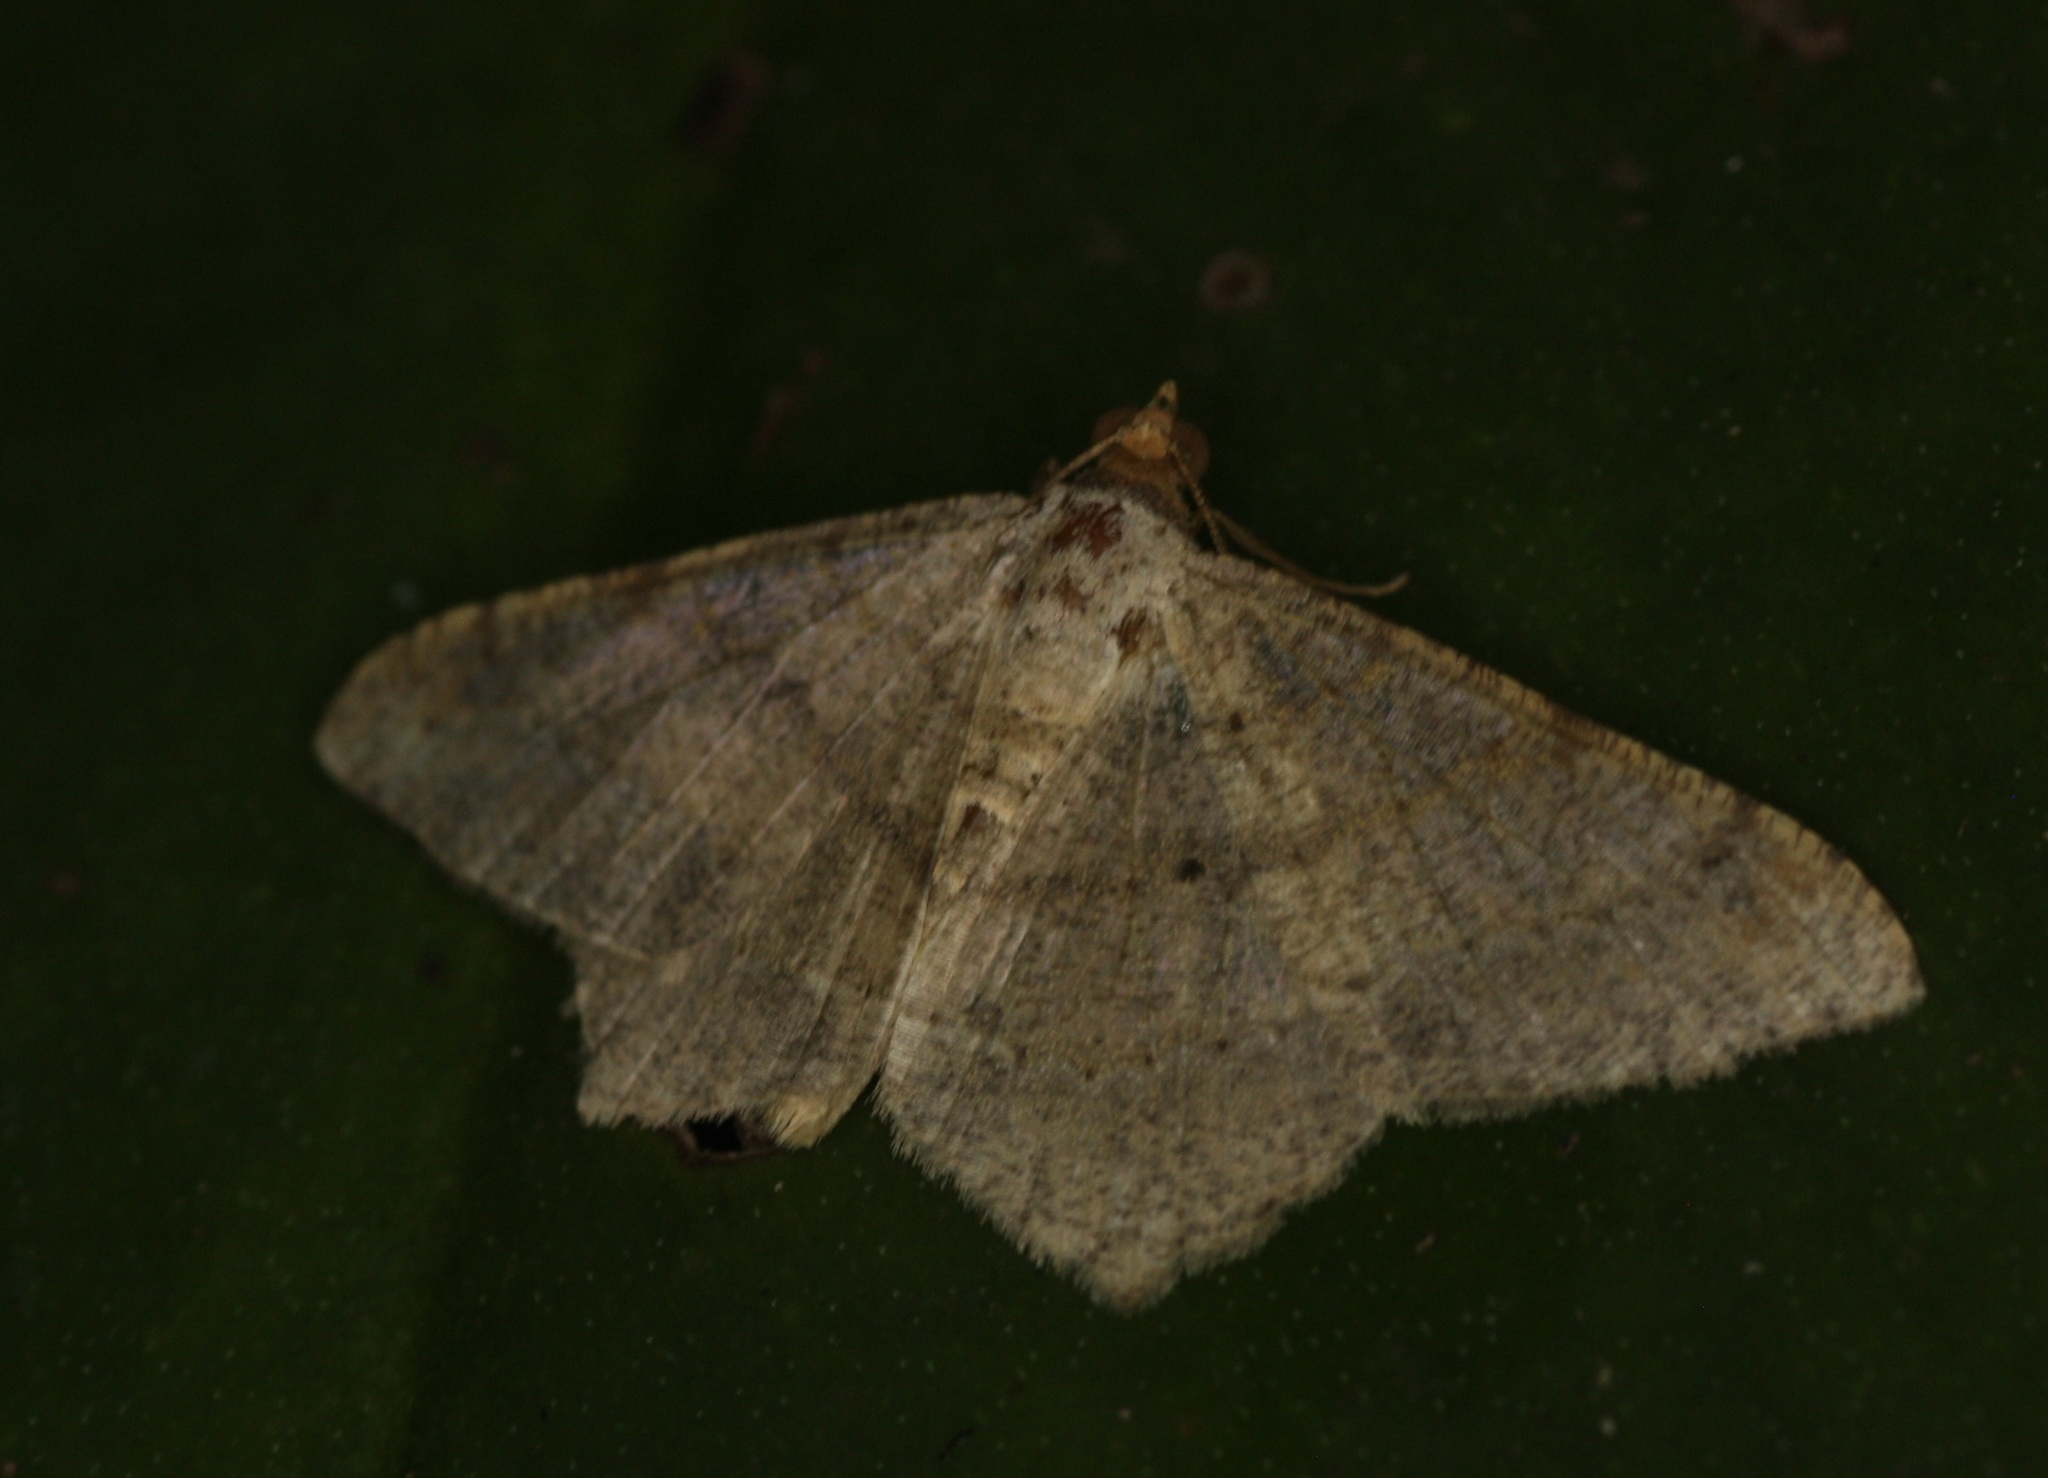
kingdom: Animalia
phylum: Arthropoda
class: Insecta
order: Lepidoptera
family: Geometridae
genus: Macaria
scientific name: Macaria abydata
